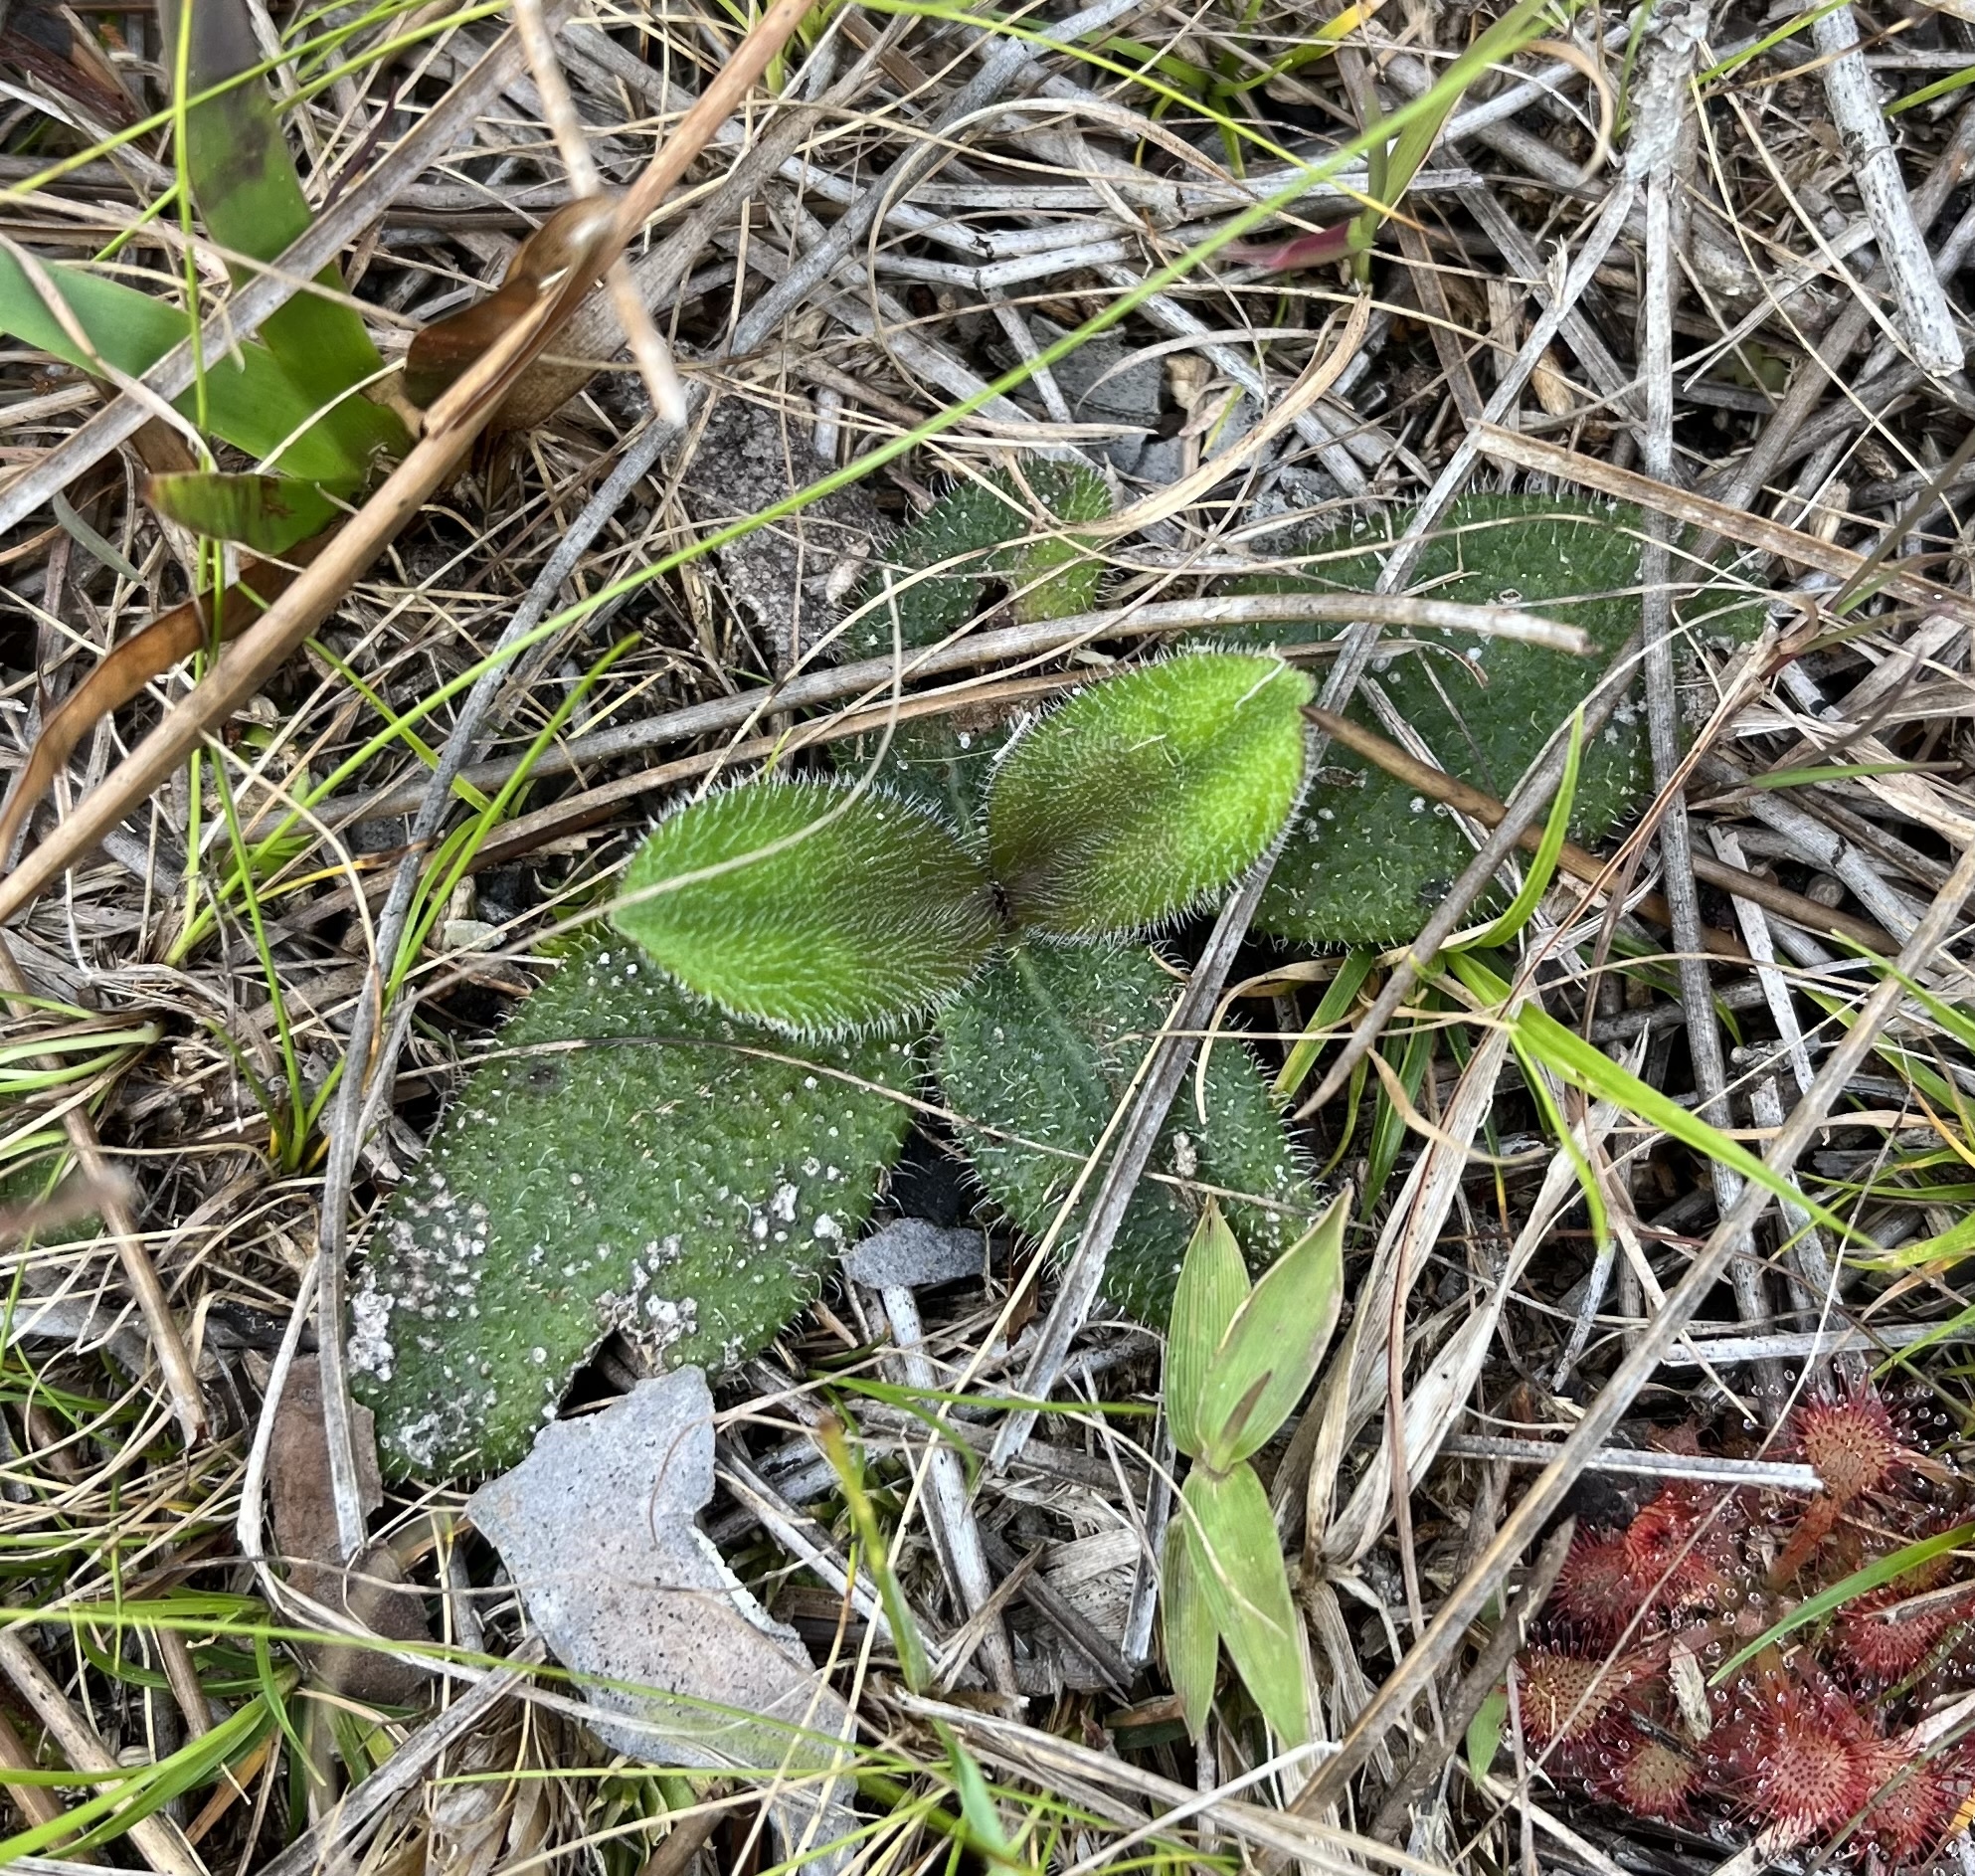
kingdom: Plantae
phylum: Tracheophyta
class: Magnoliopsida
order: Asterales
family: Asteraceae
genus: Helianthus
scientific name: Helianthus heterophyllus
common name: Wetland sunflower
